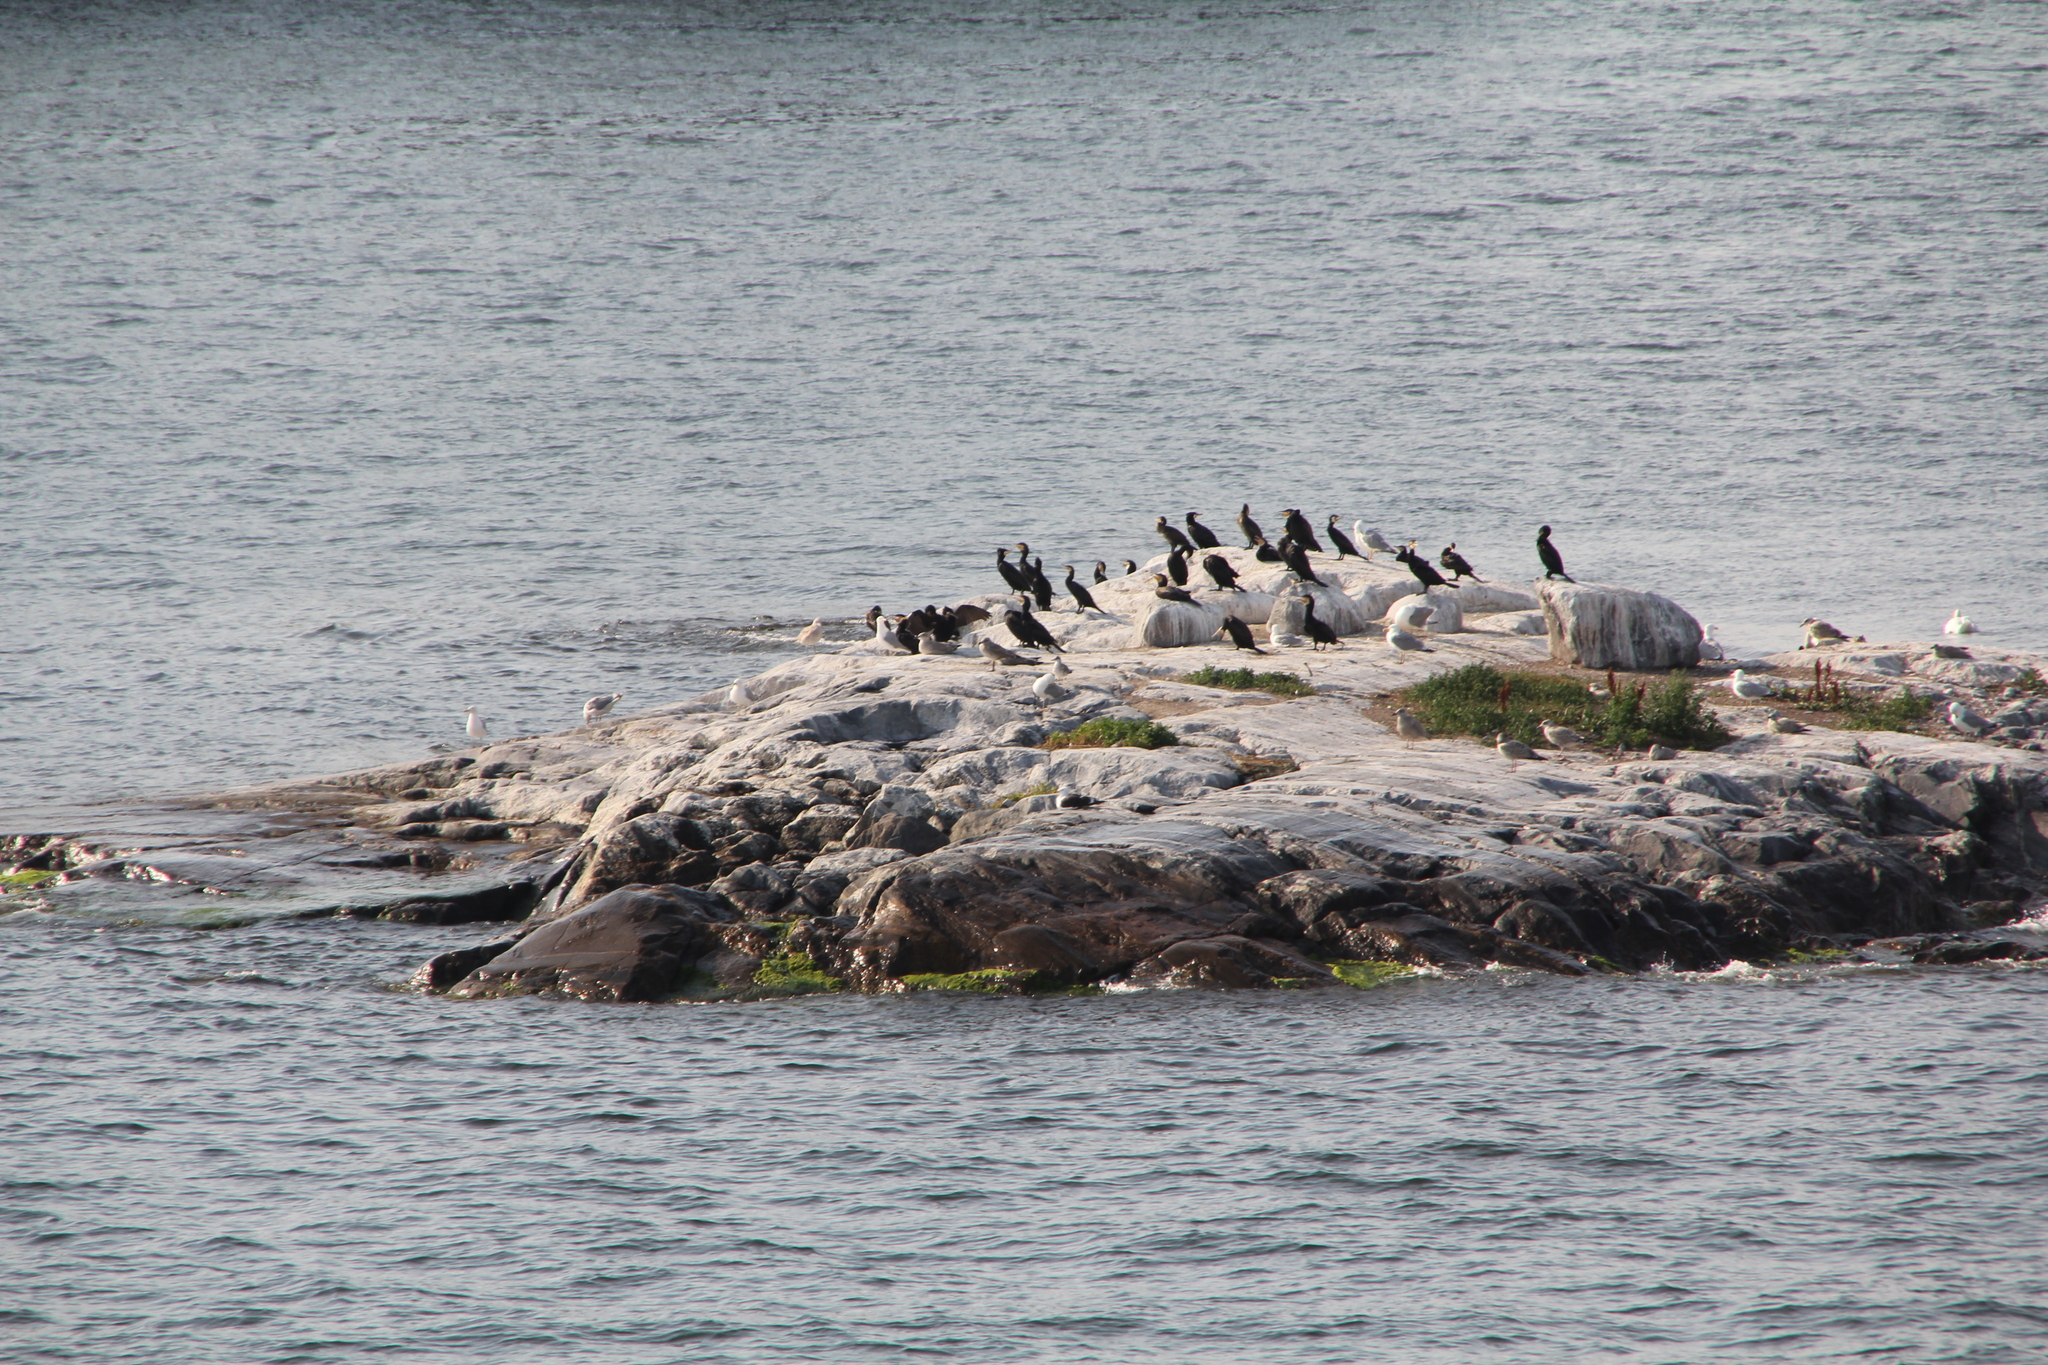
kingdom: Animalia
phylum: Chordata
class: Aves
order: Suliformes
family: Phalacrocoracidae
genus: Phalacrocorax
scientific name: Phalacrocorax carbo
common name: Great cormorant
